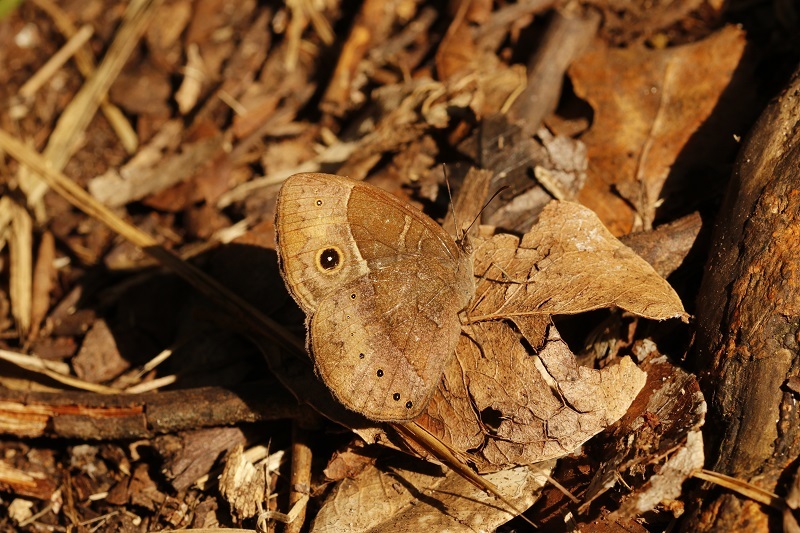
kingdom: Animalia
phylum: Arthropoda
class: Insecta
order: Lepidoptera
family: Nymphalidae
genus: Mycalesis
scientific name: Mycalesis rhacotis
